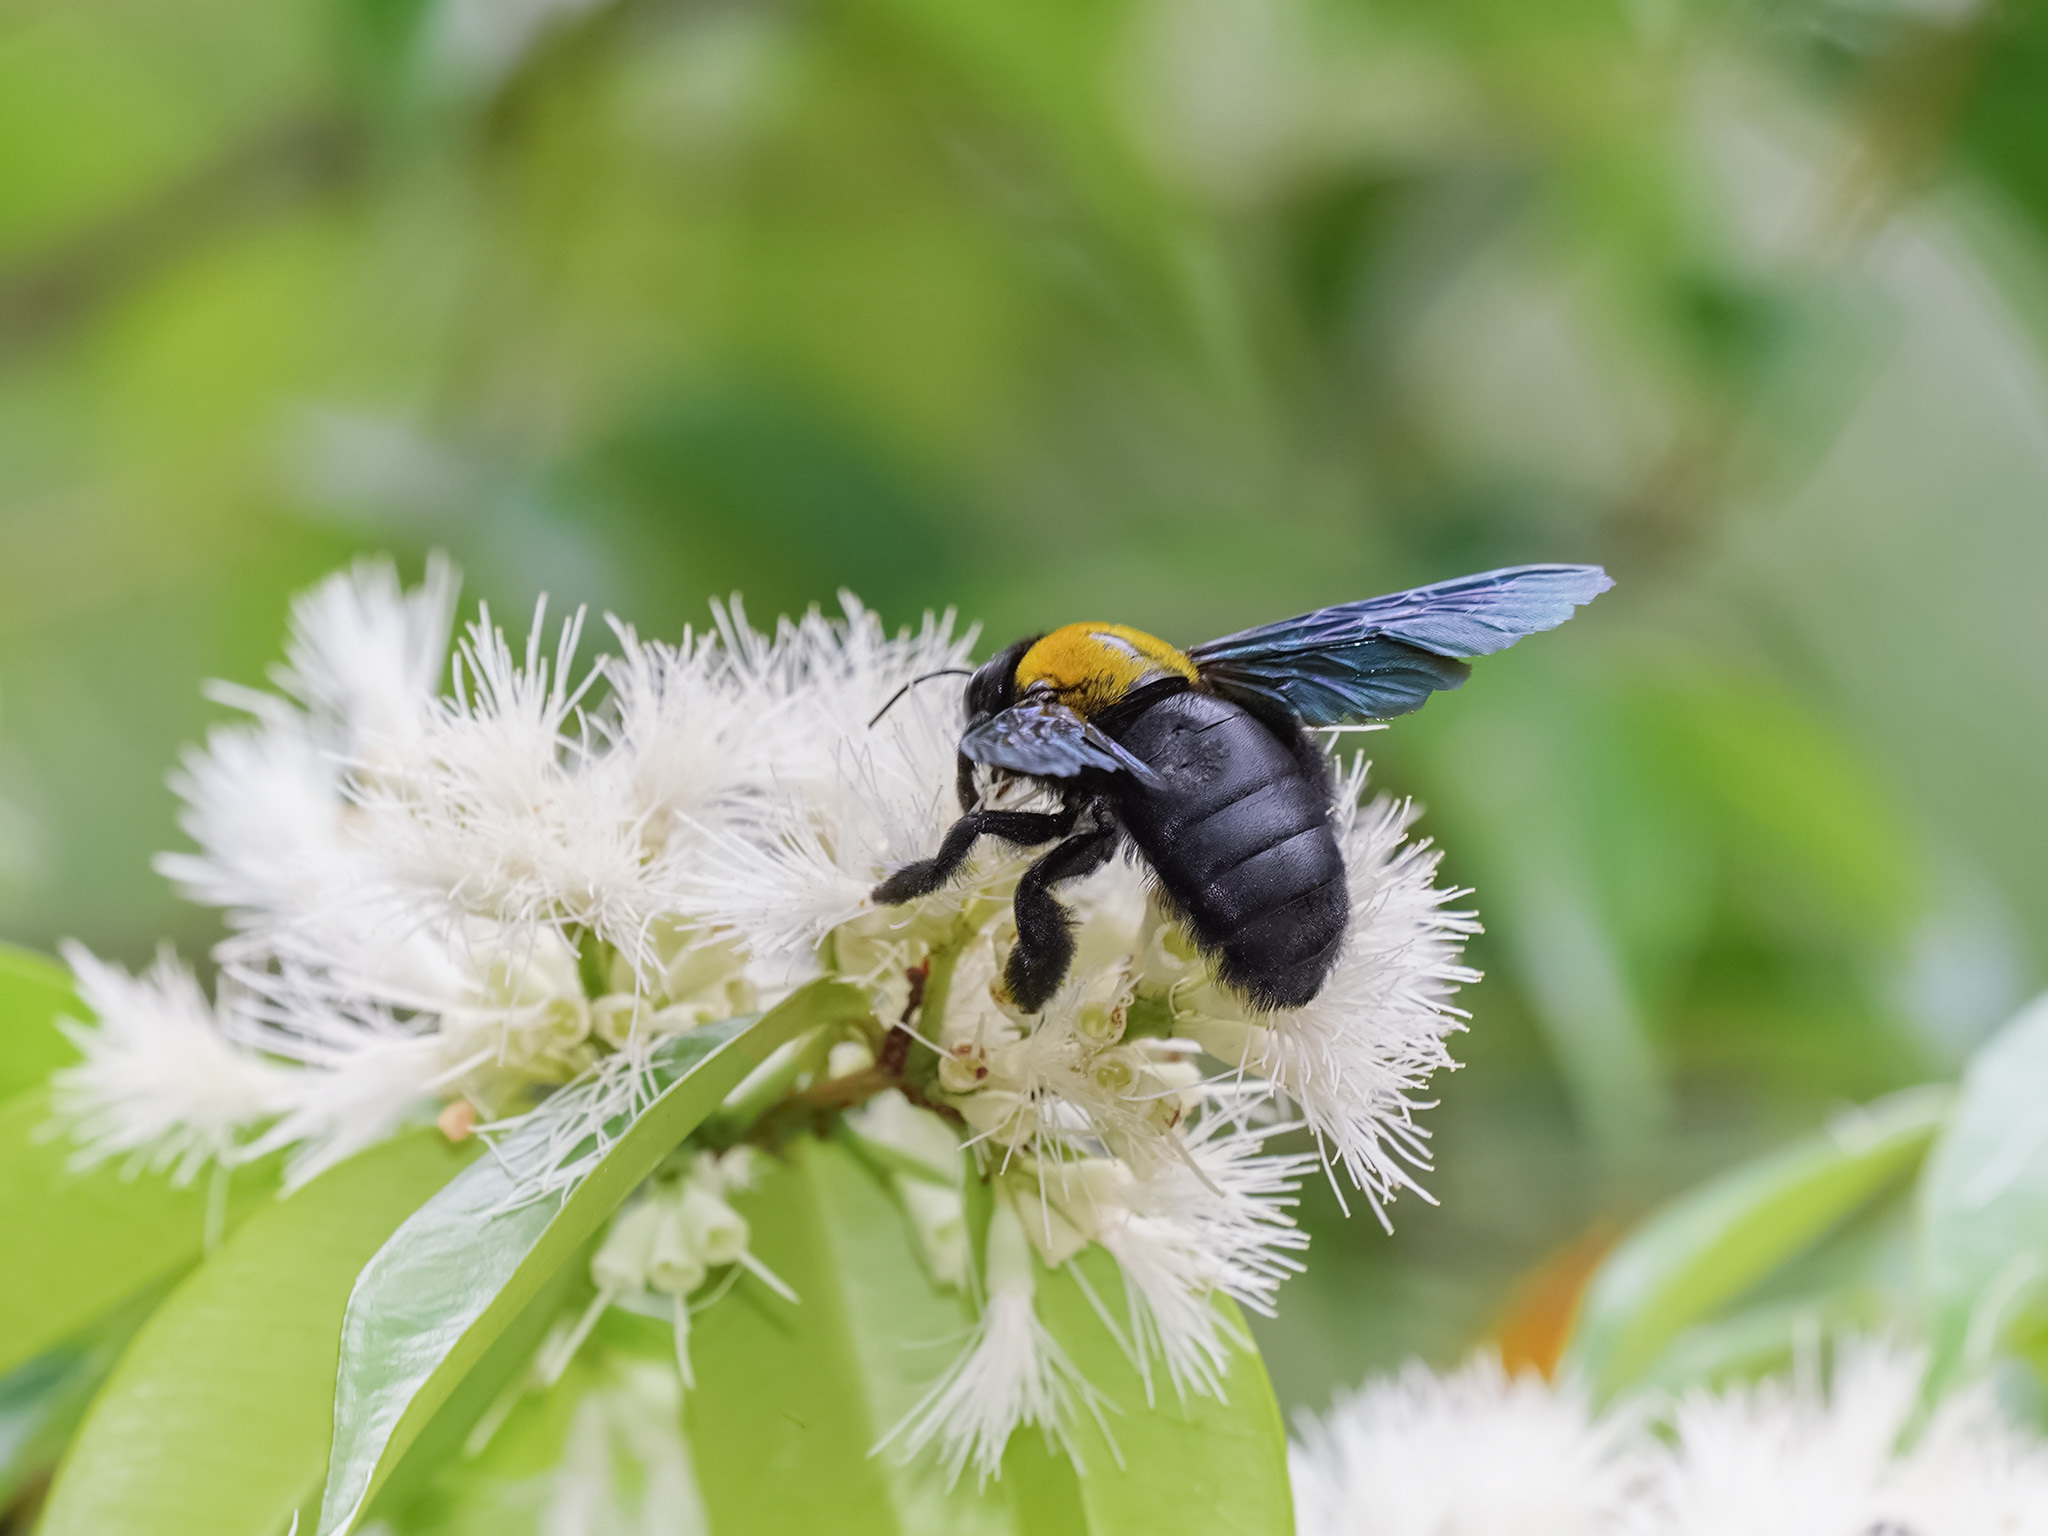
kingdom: Animalia
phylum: Arthropoda
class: Insecta
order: Hymenoptera
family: Apidae
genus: Xylocopa
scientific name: Xylocopa aestuans
